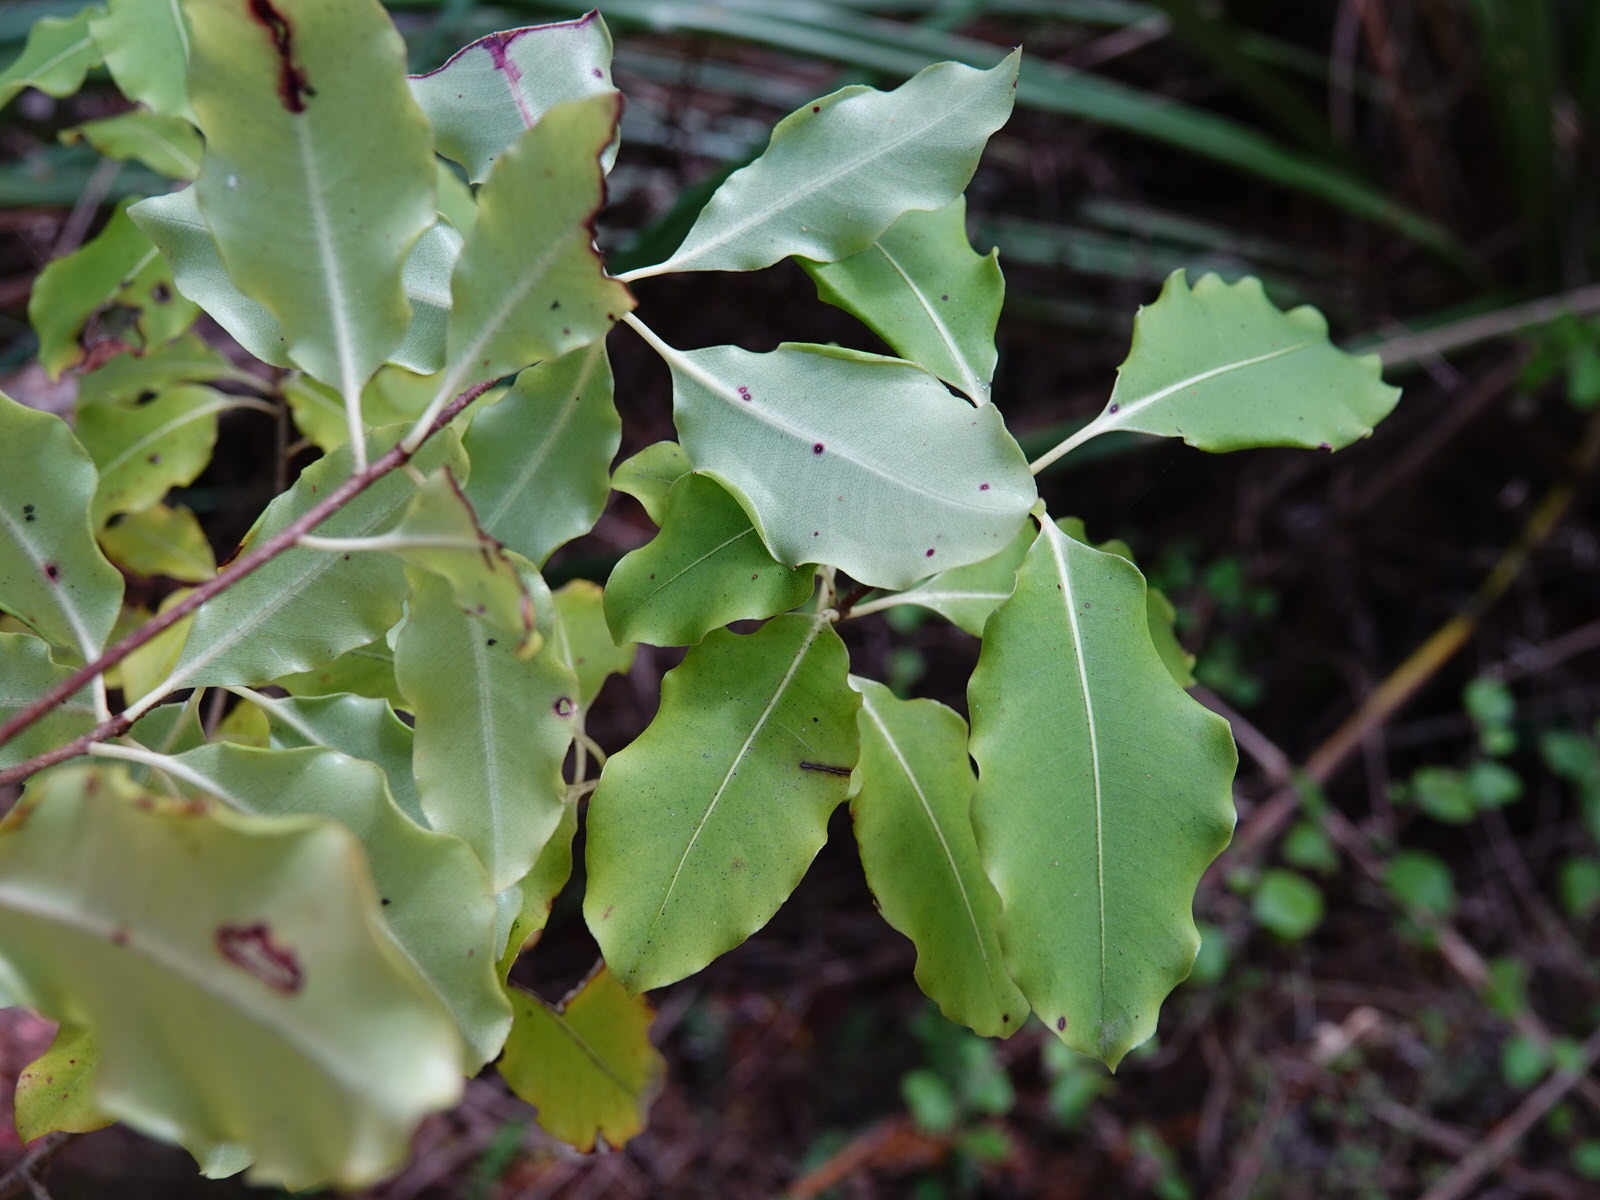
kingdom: Plantae
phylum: Tracheophyta
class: Magnoliopsida
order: Apiales
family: Pittosporaceae
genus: Pittosporum
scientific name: Pittosporum eugenioides
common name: Lemonwood
